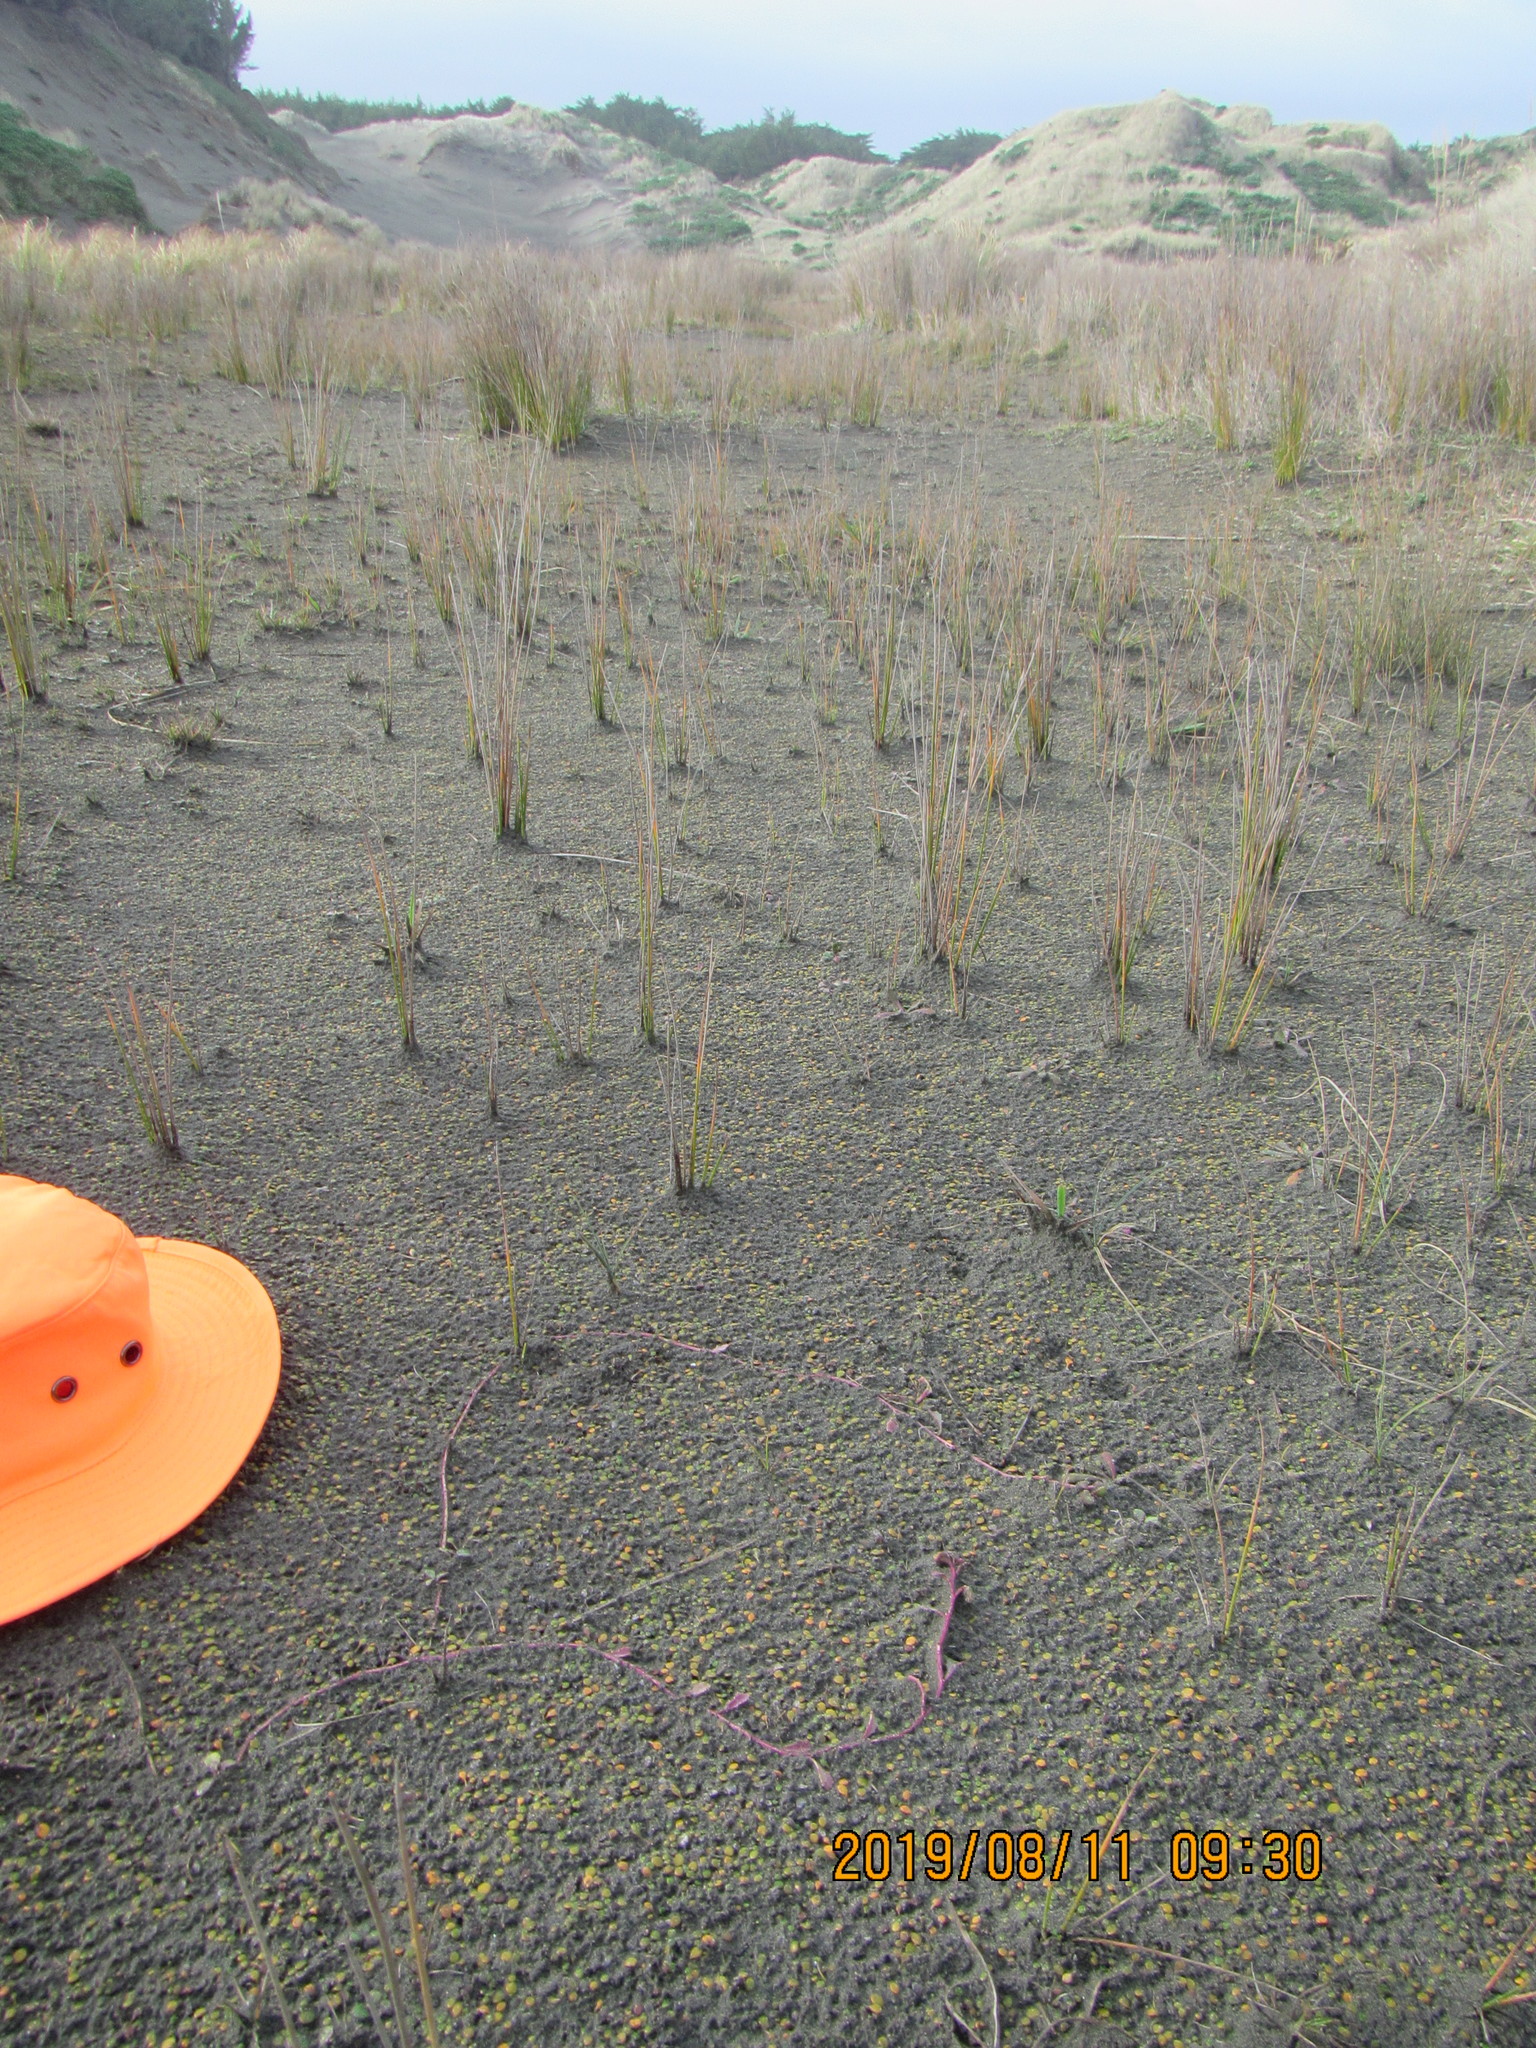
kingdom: Plantae
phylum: Tracheophyta
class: Magnoliopsida
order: Asterales
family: Campanulaceae
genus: Lobelia
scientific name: Lobelia anceps
